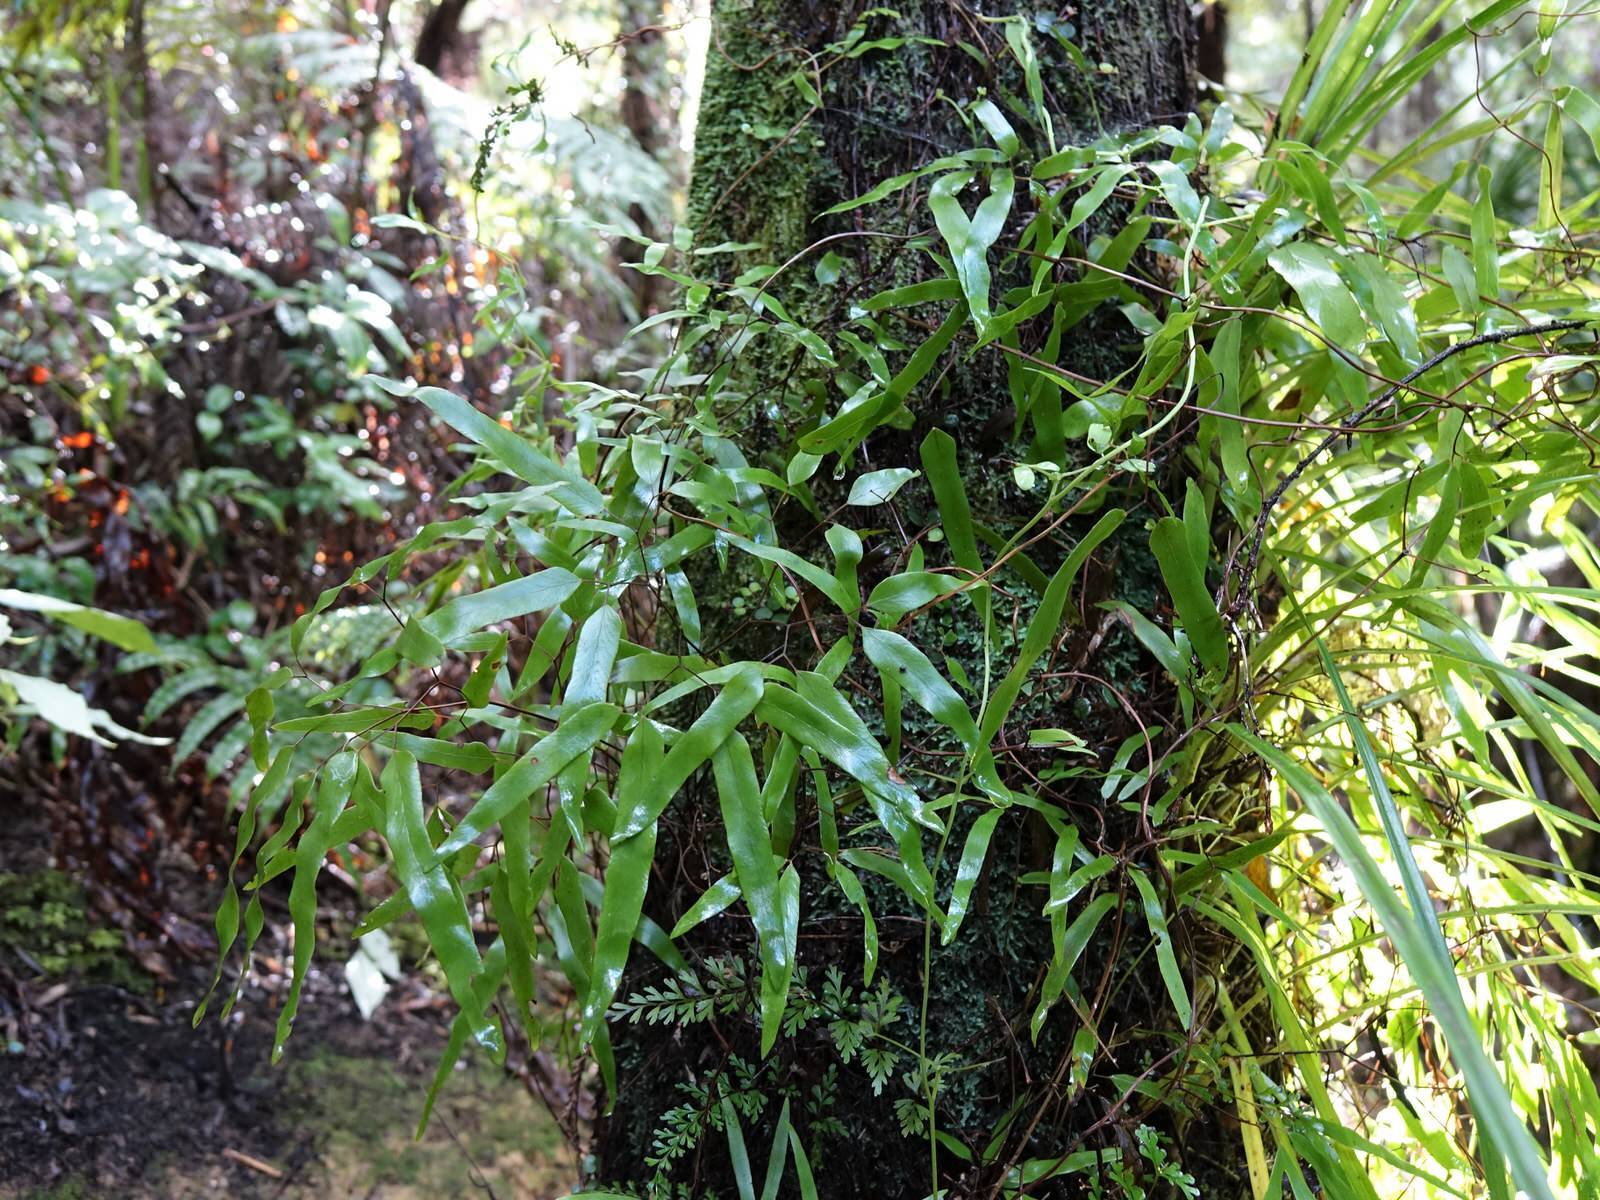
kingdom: Plantae
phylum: Tracheophyta
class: Polypodiopsida
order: Schizaeales
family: Lygodiaceae
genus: Lygodium
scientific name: Lygodium articulatum
